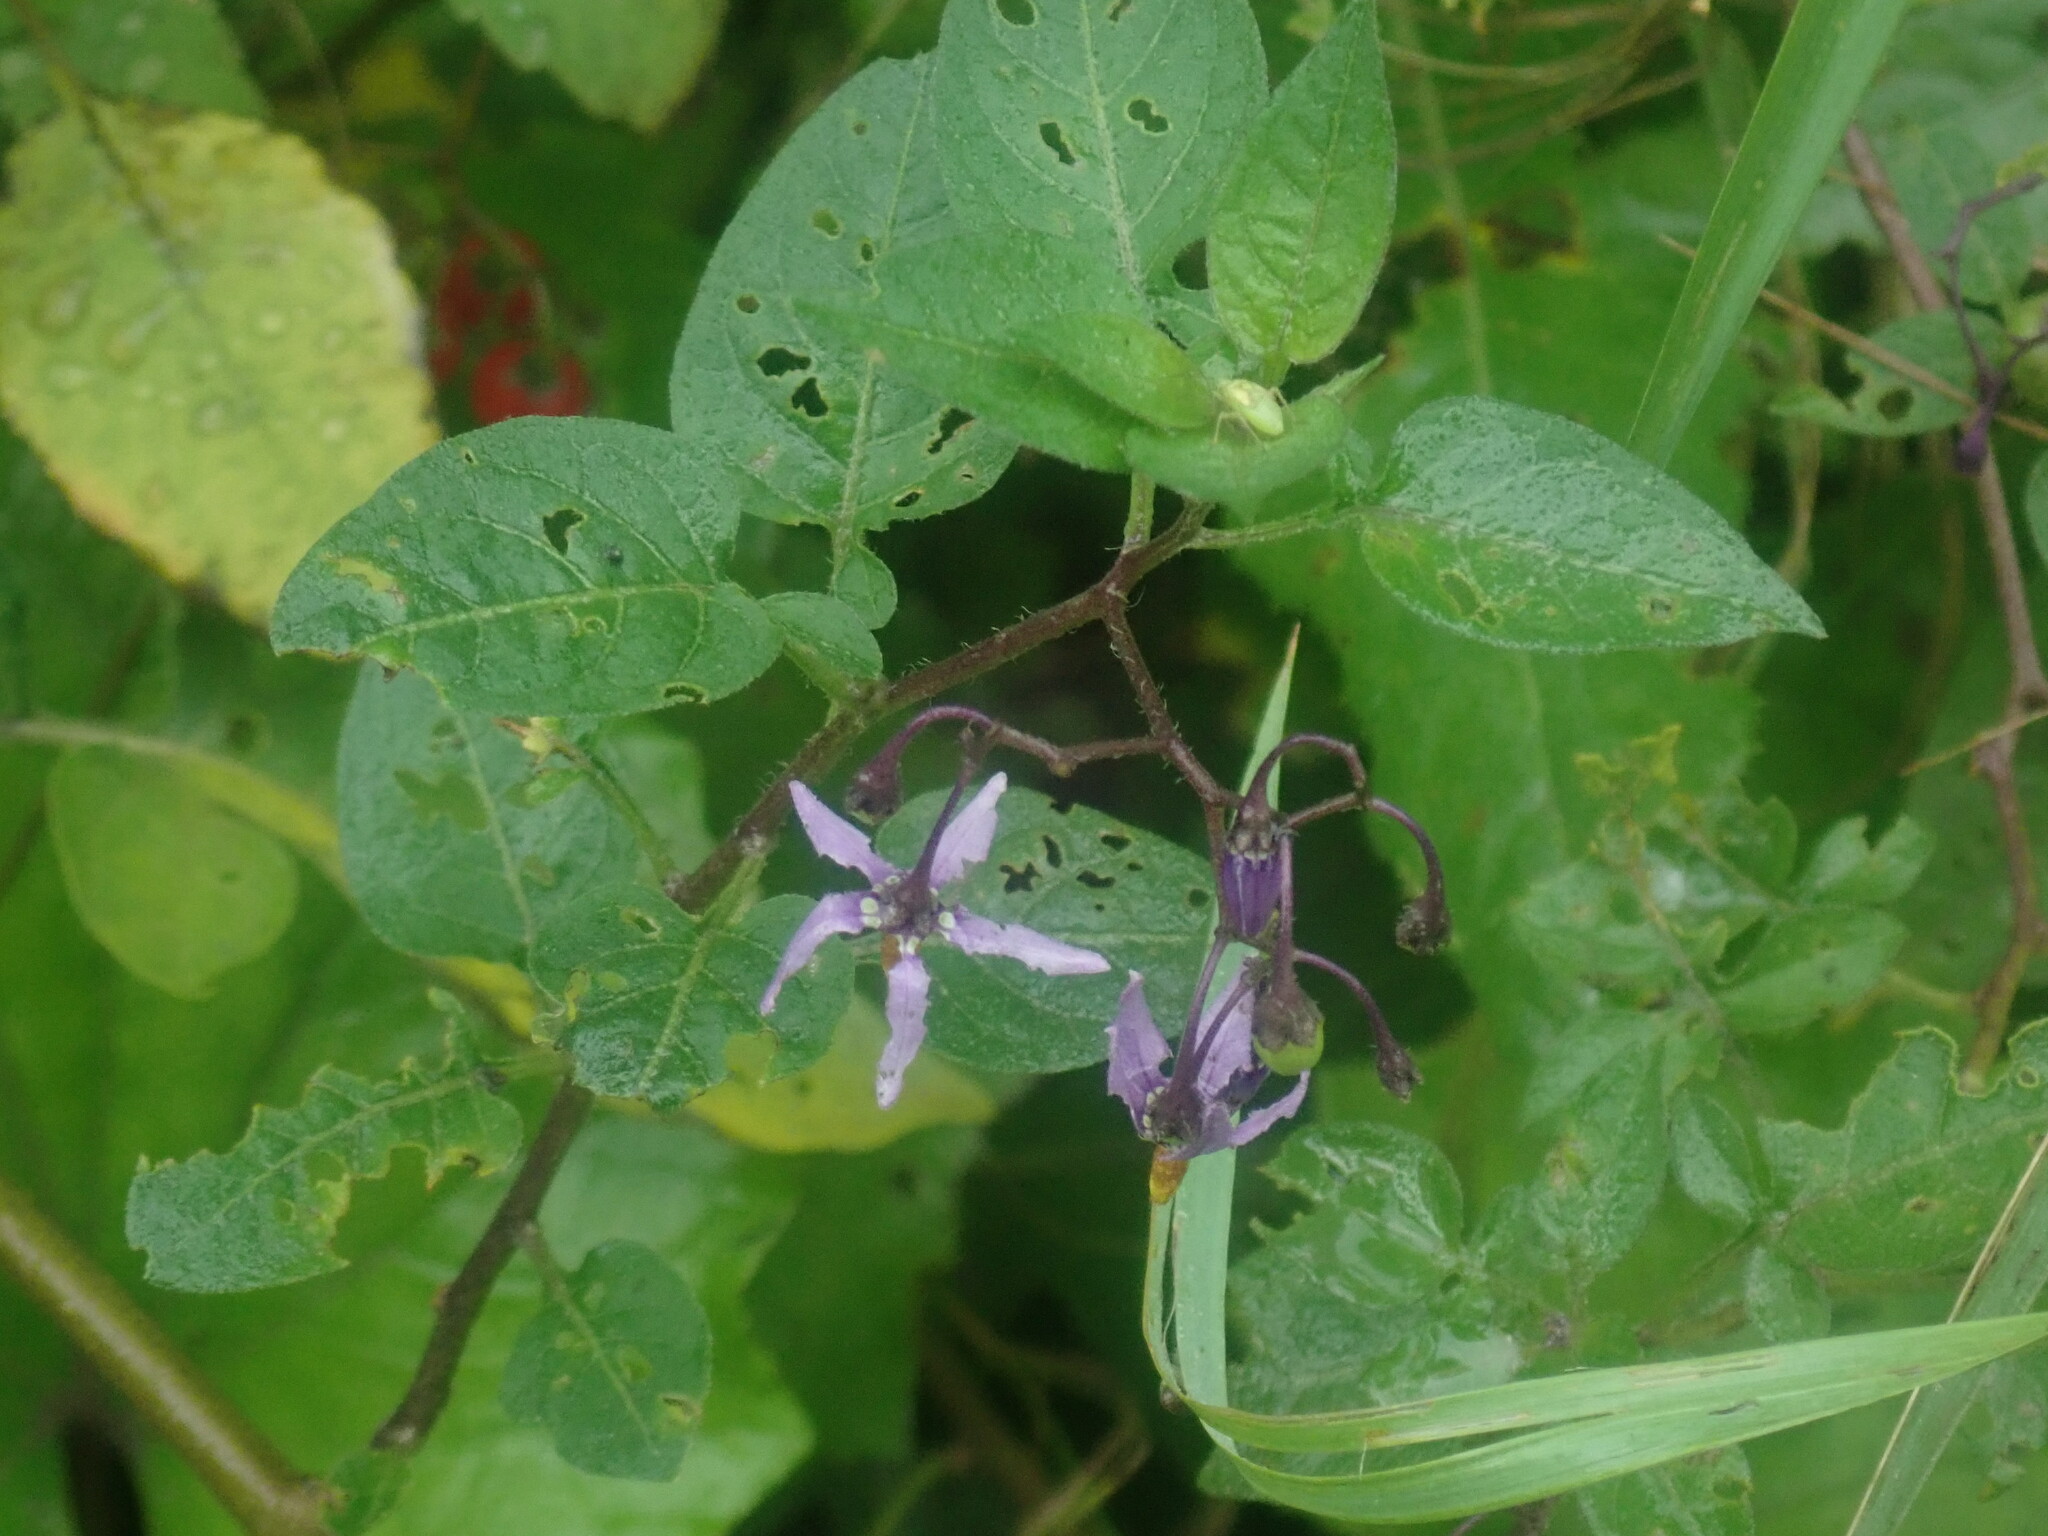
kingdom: Plantae
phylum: Tracheophyta
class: Magnoliopsida
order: Solanales
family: Solanaceae
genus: Solanum
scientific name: Solanum dulcamara
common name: Climbing nightshade
